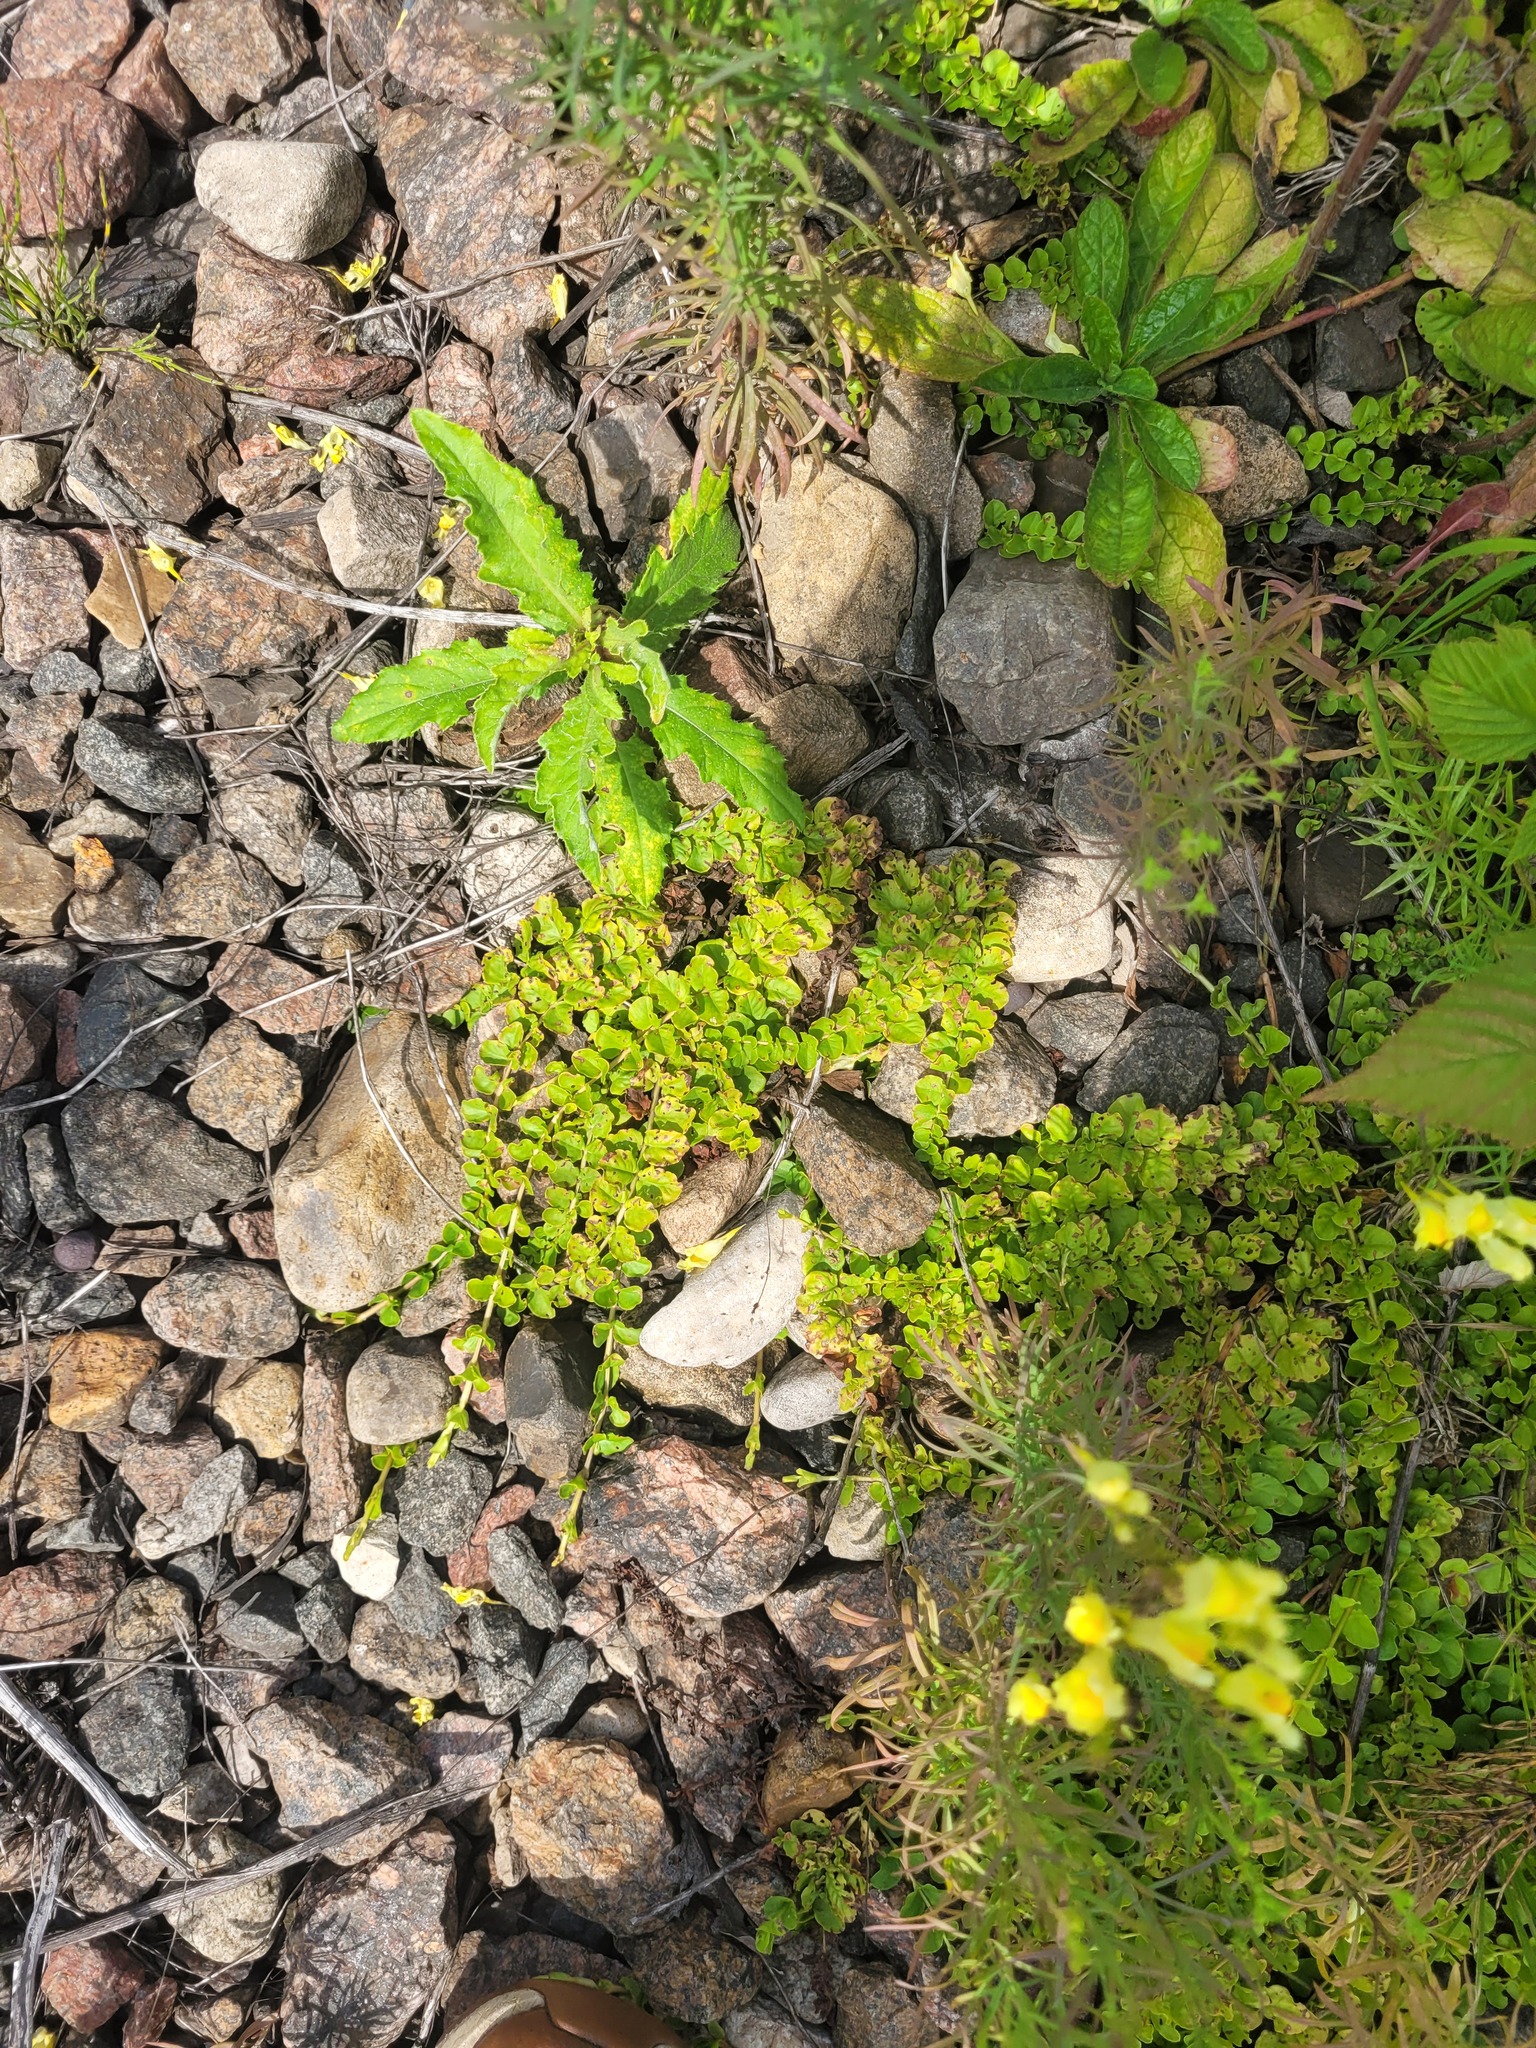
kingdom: Plantae
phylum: Tracheophyta
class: Magnoliopsida
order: Ericales
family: Primulaceae
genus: Lysimachia
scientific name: Lysimachia nummularia
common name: Moneywort
